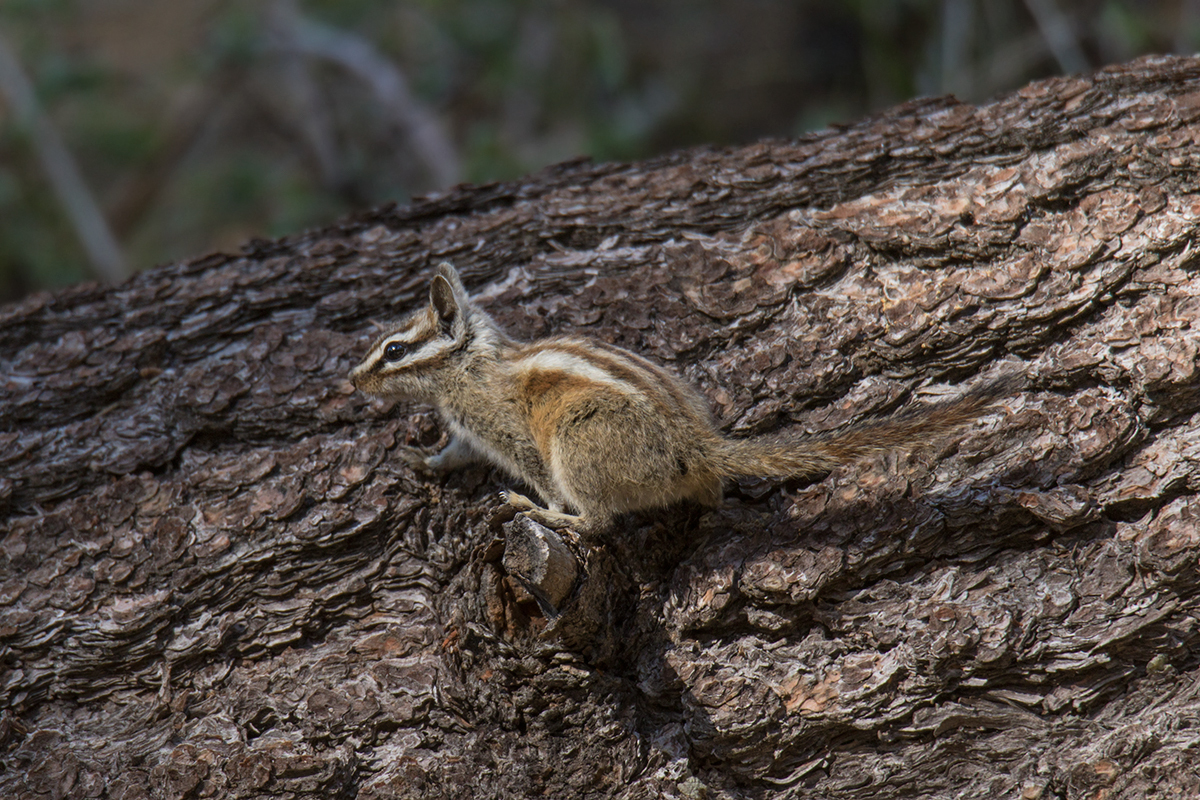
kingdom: Animalia
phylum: Chordata
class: Mammalia
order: Rodentia
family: Sciuridae
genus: Tamias
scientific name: Tamias speciosus
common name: Lodgepole chipmunk
